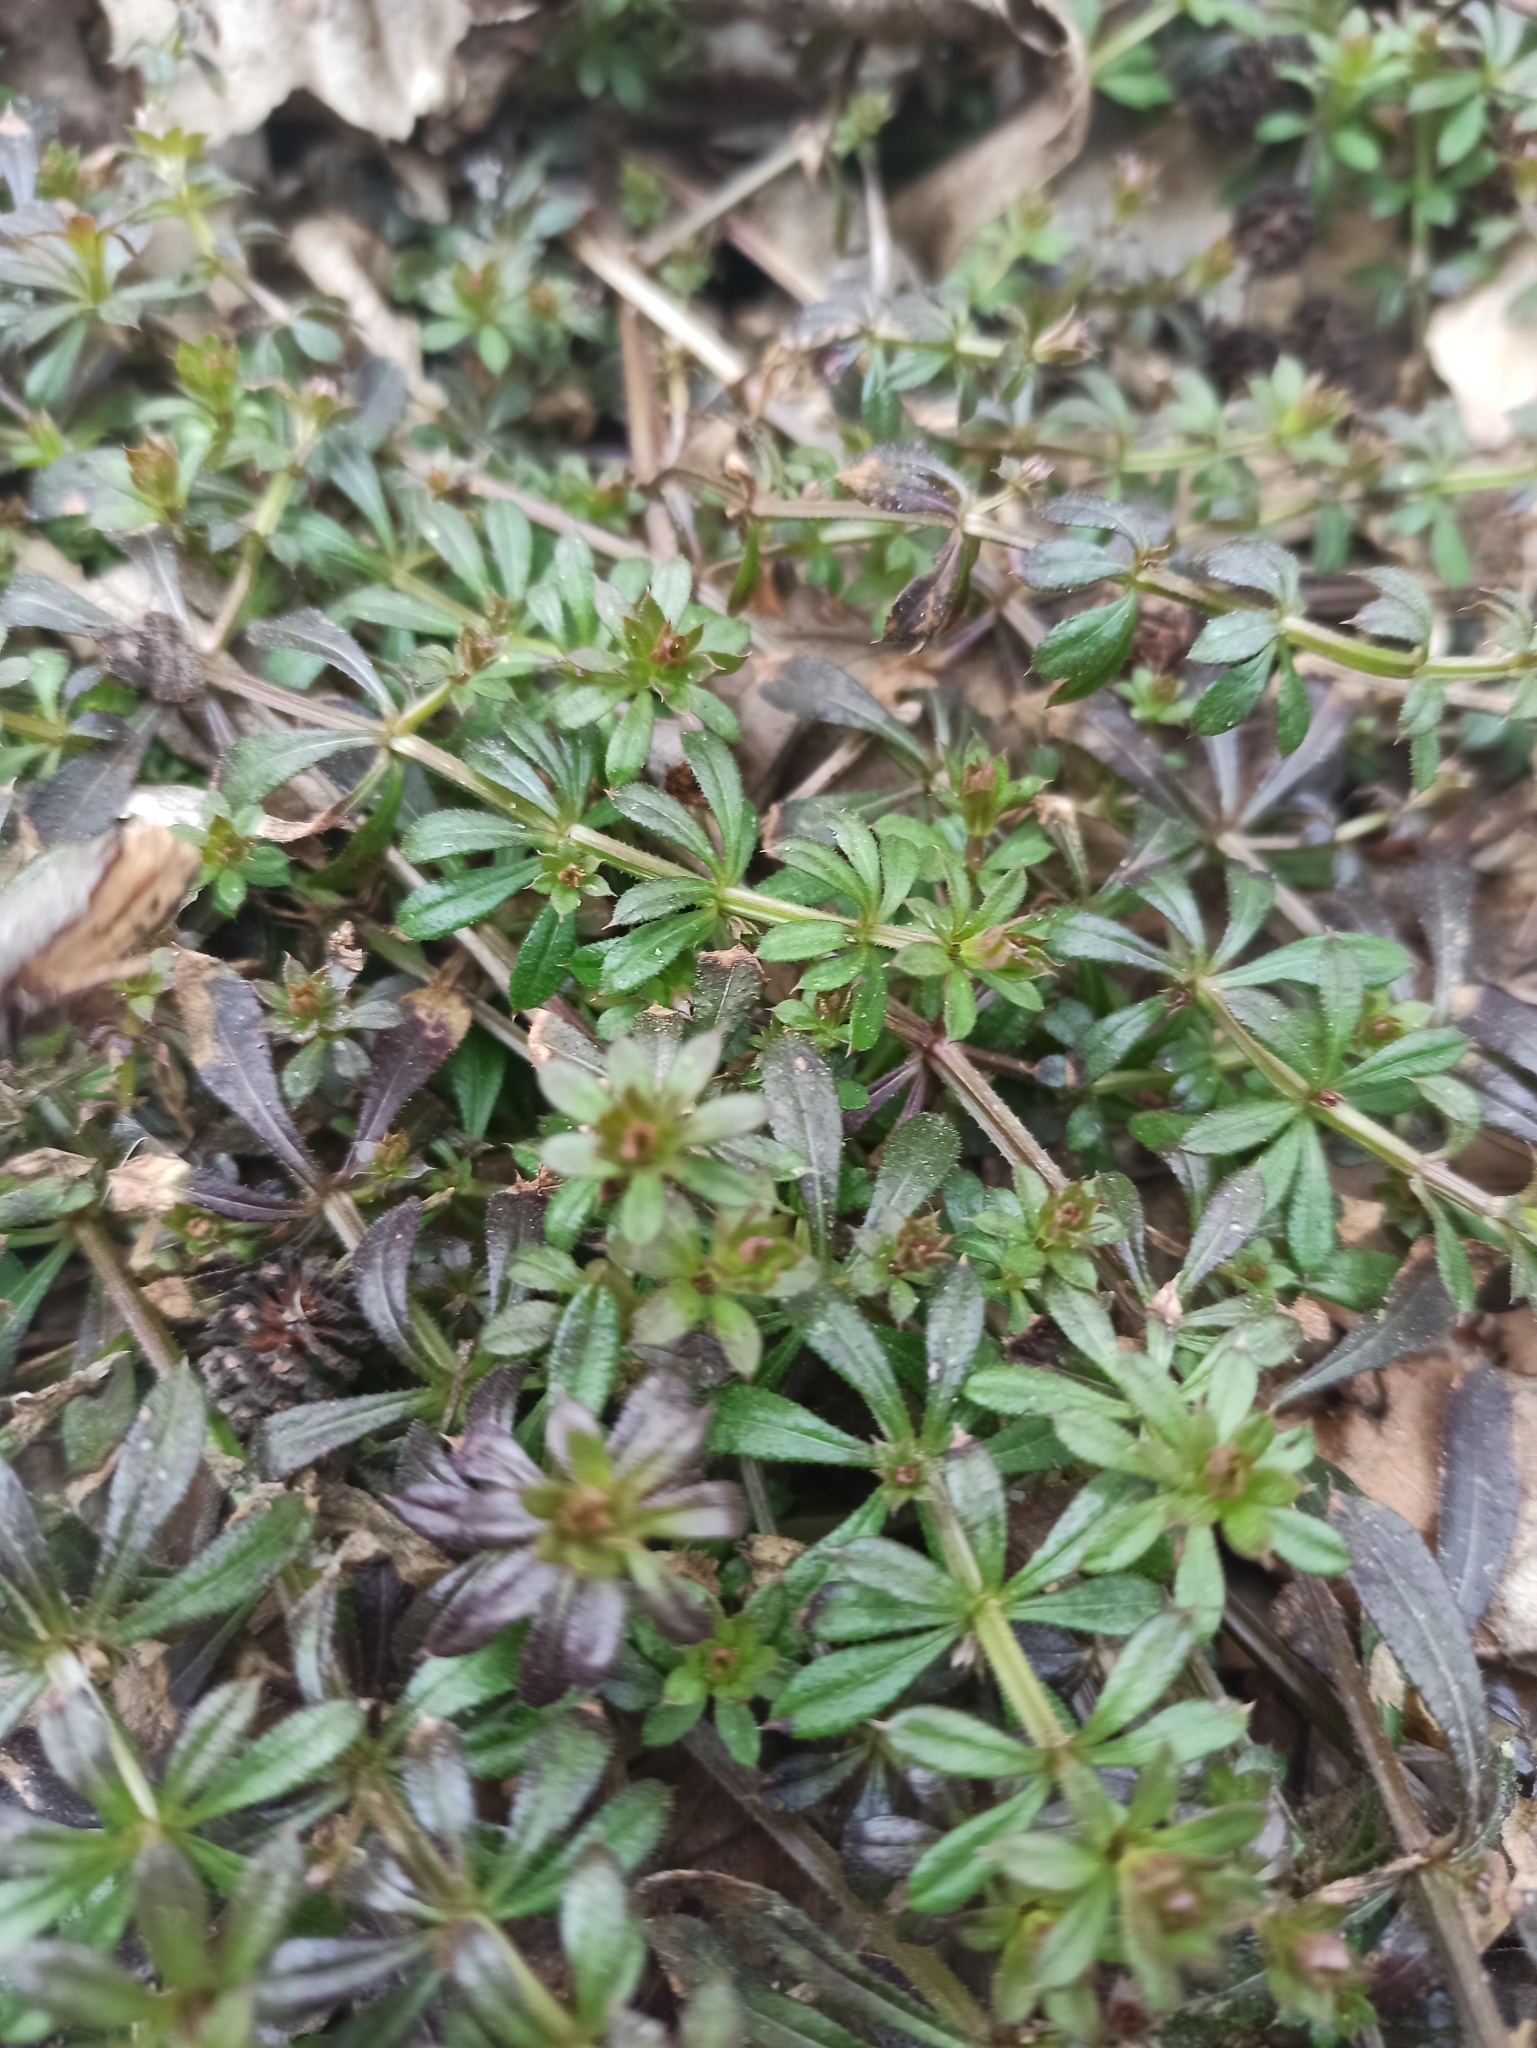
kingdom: Plantae
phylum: Tracheophyta
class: Magnoliopsida
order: Gentianales
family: Rubiaceae
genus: Galium
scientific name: Galium aparine
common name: Cleavers
